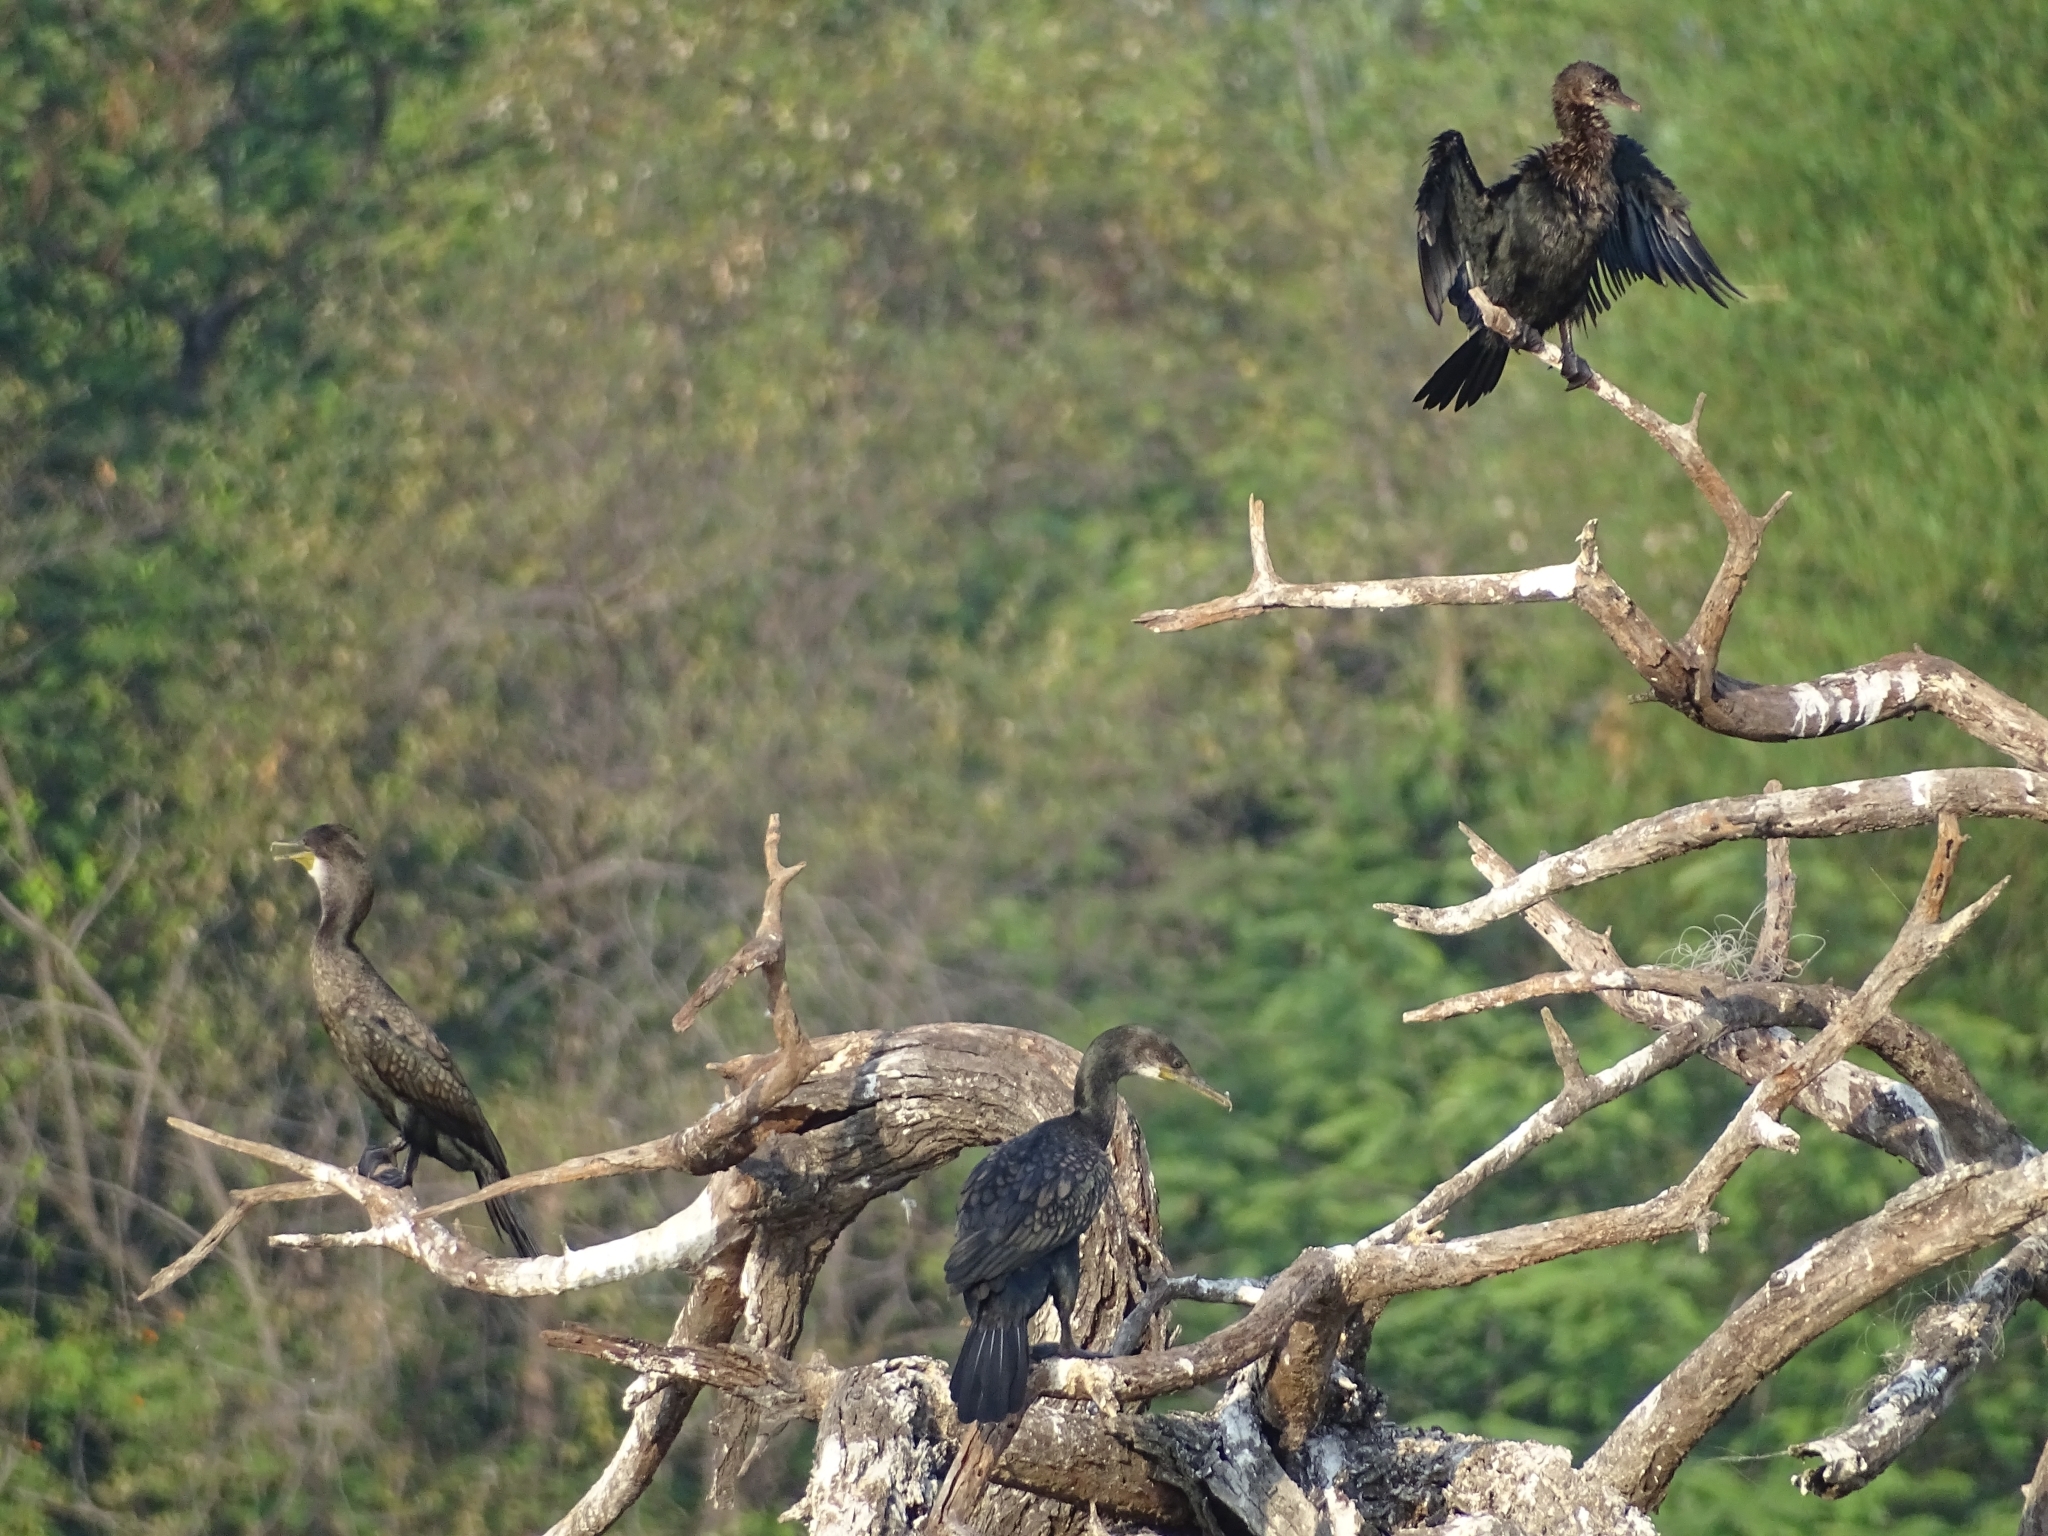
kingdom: Animalia
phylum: Chordata
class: Aves
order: Suliformes
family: Phalacrocoracidae
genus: Phalacrocorax
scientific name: Phalacrocorax fuscicollis
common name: Indian cormorant
